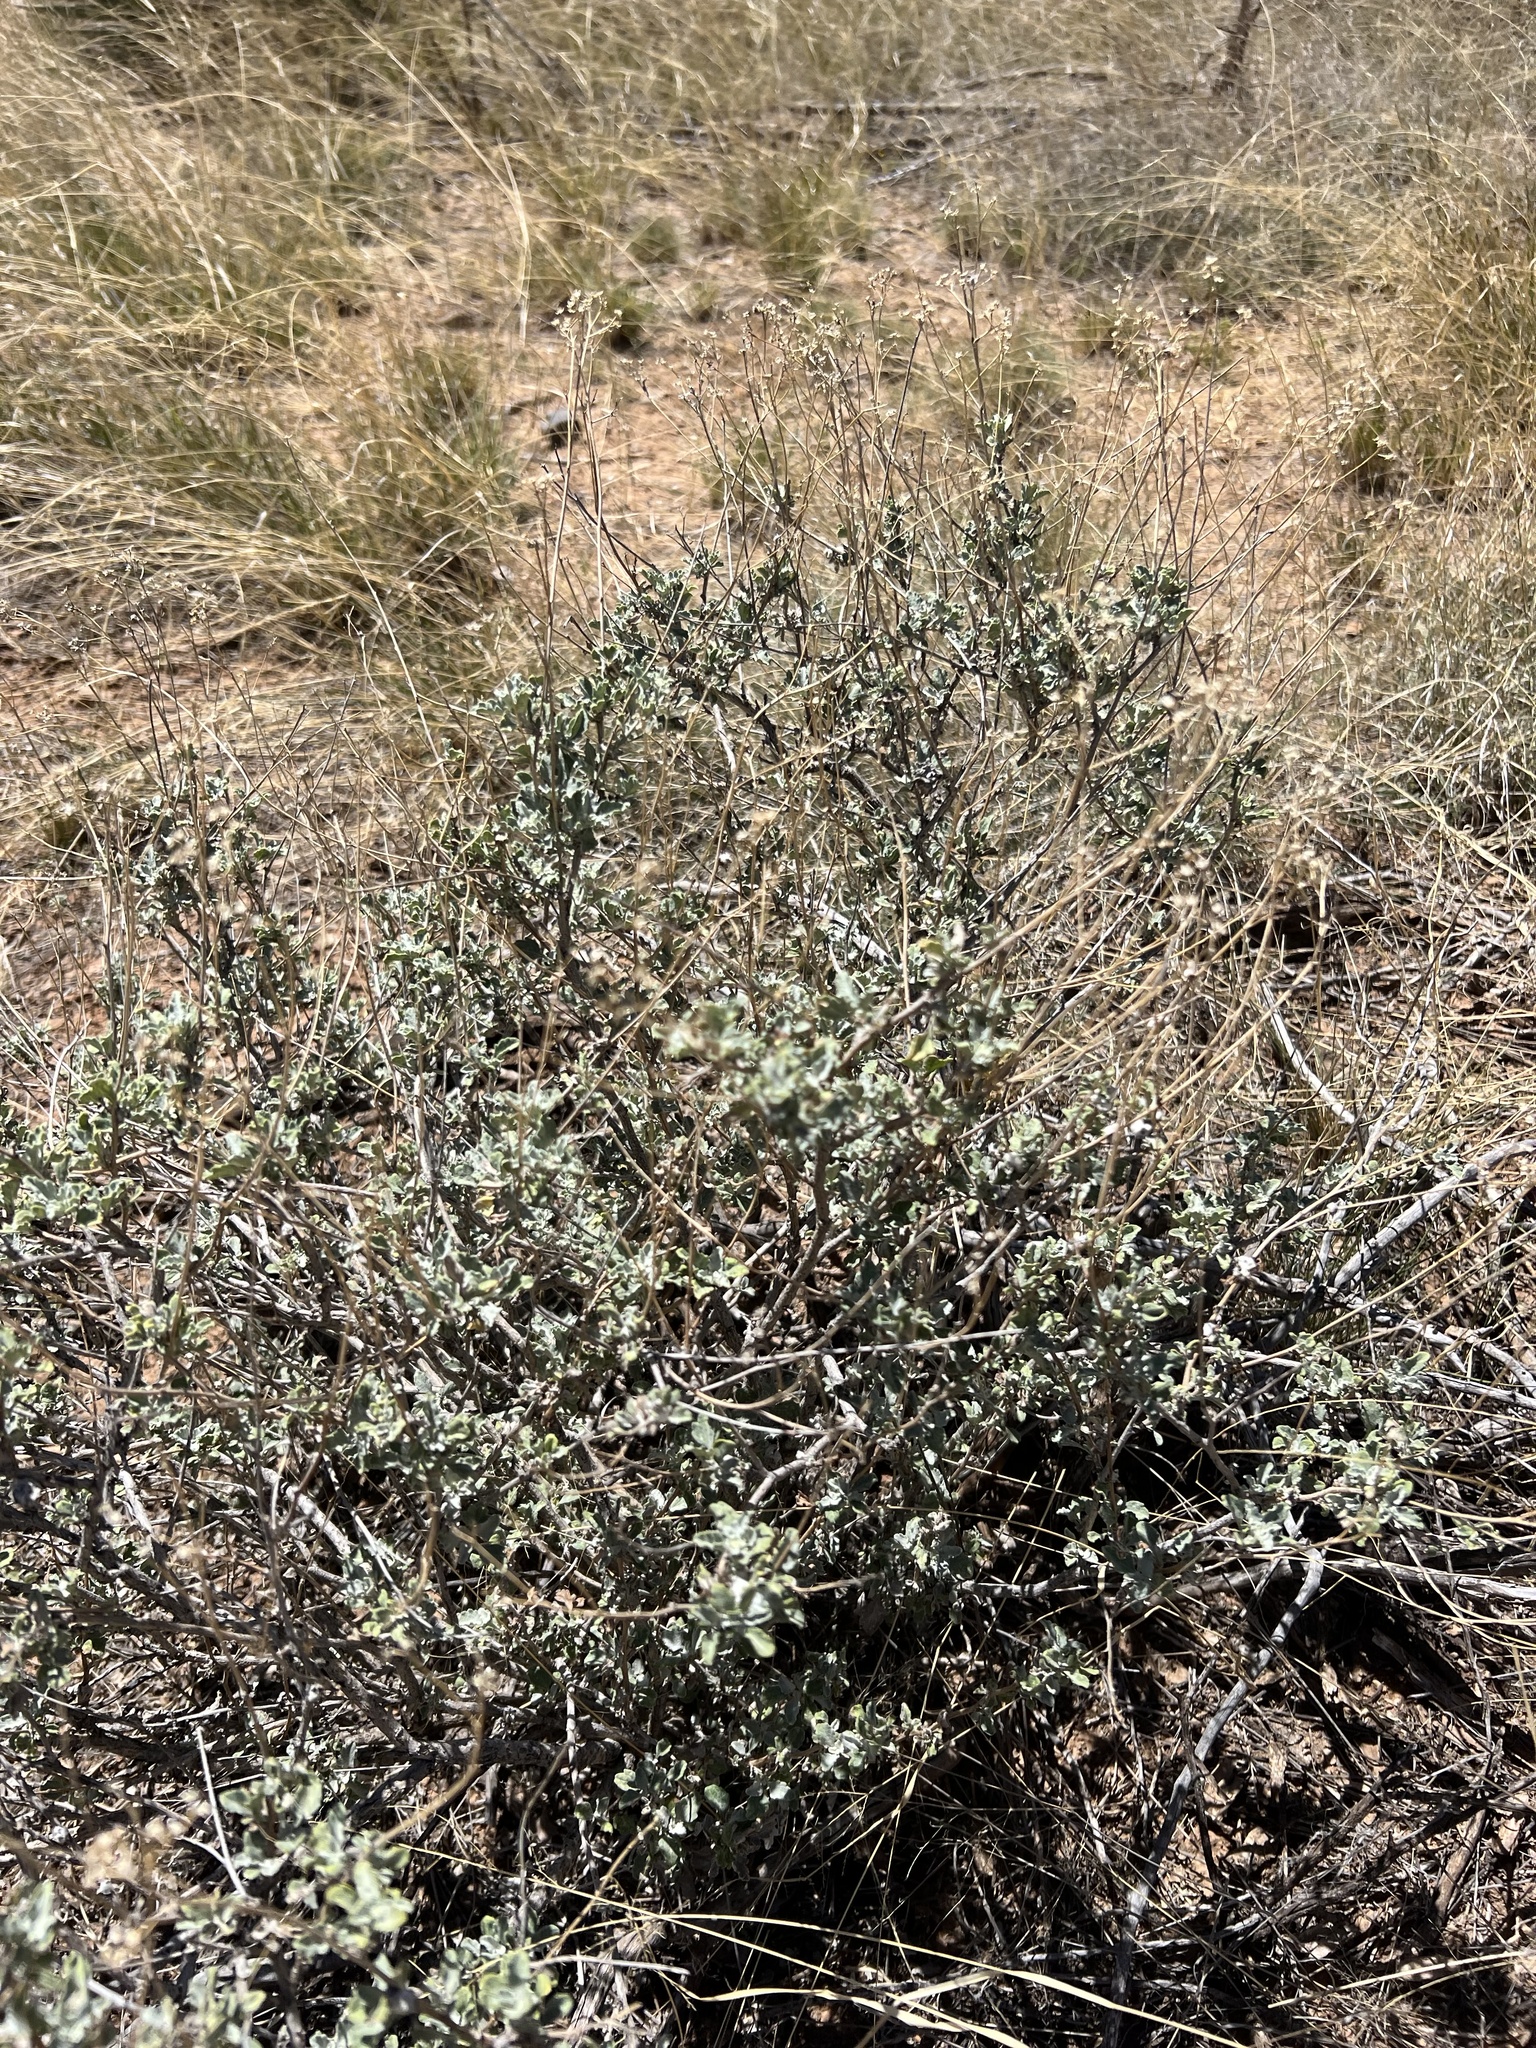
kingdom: Plantae
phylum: Tracheophyta
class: Magnoliopsida
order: Asterales
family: Asteraceae
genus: Parthenium
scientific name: Parthenium incanum
